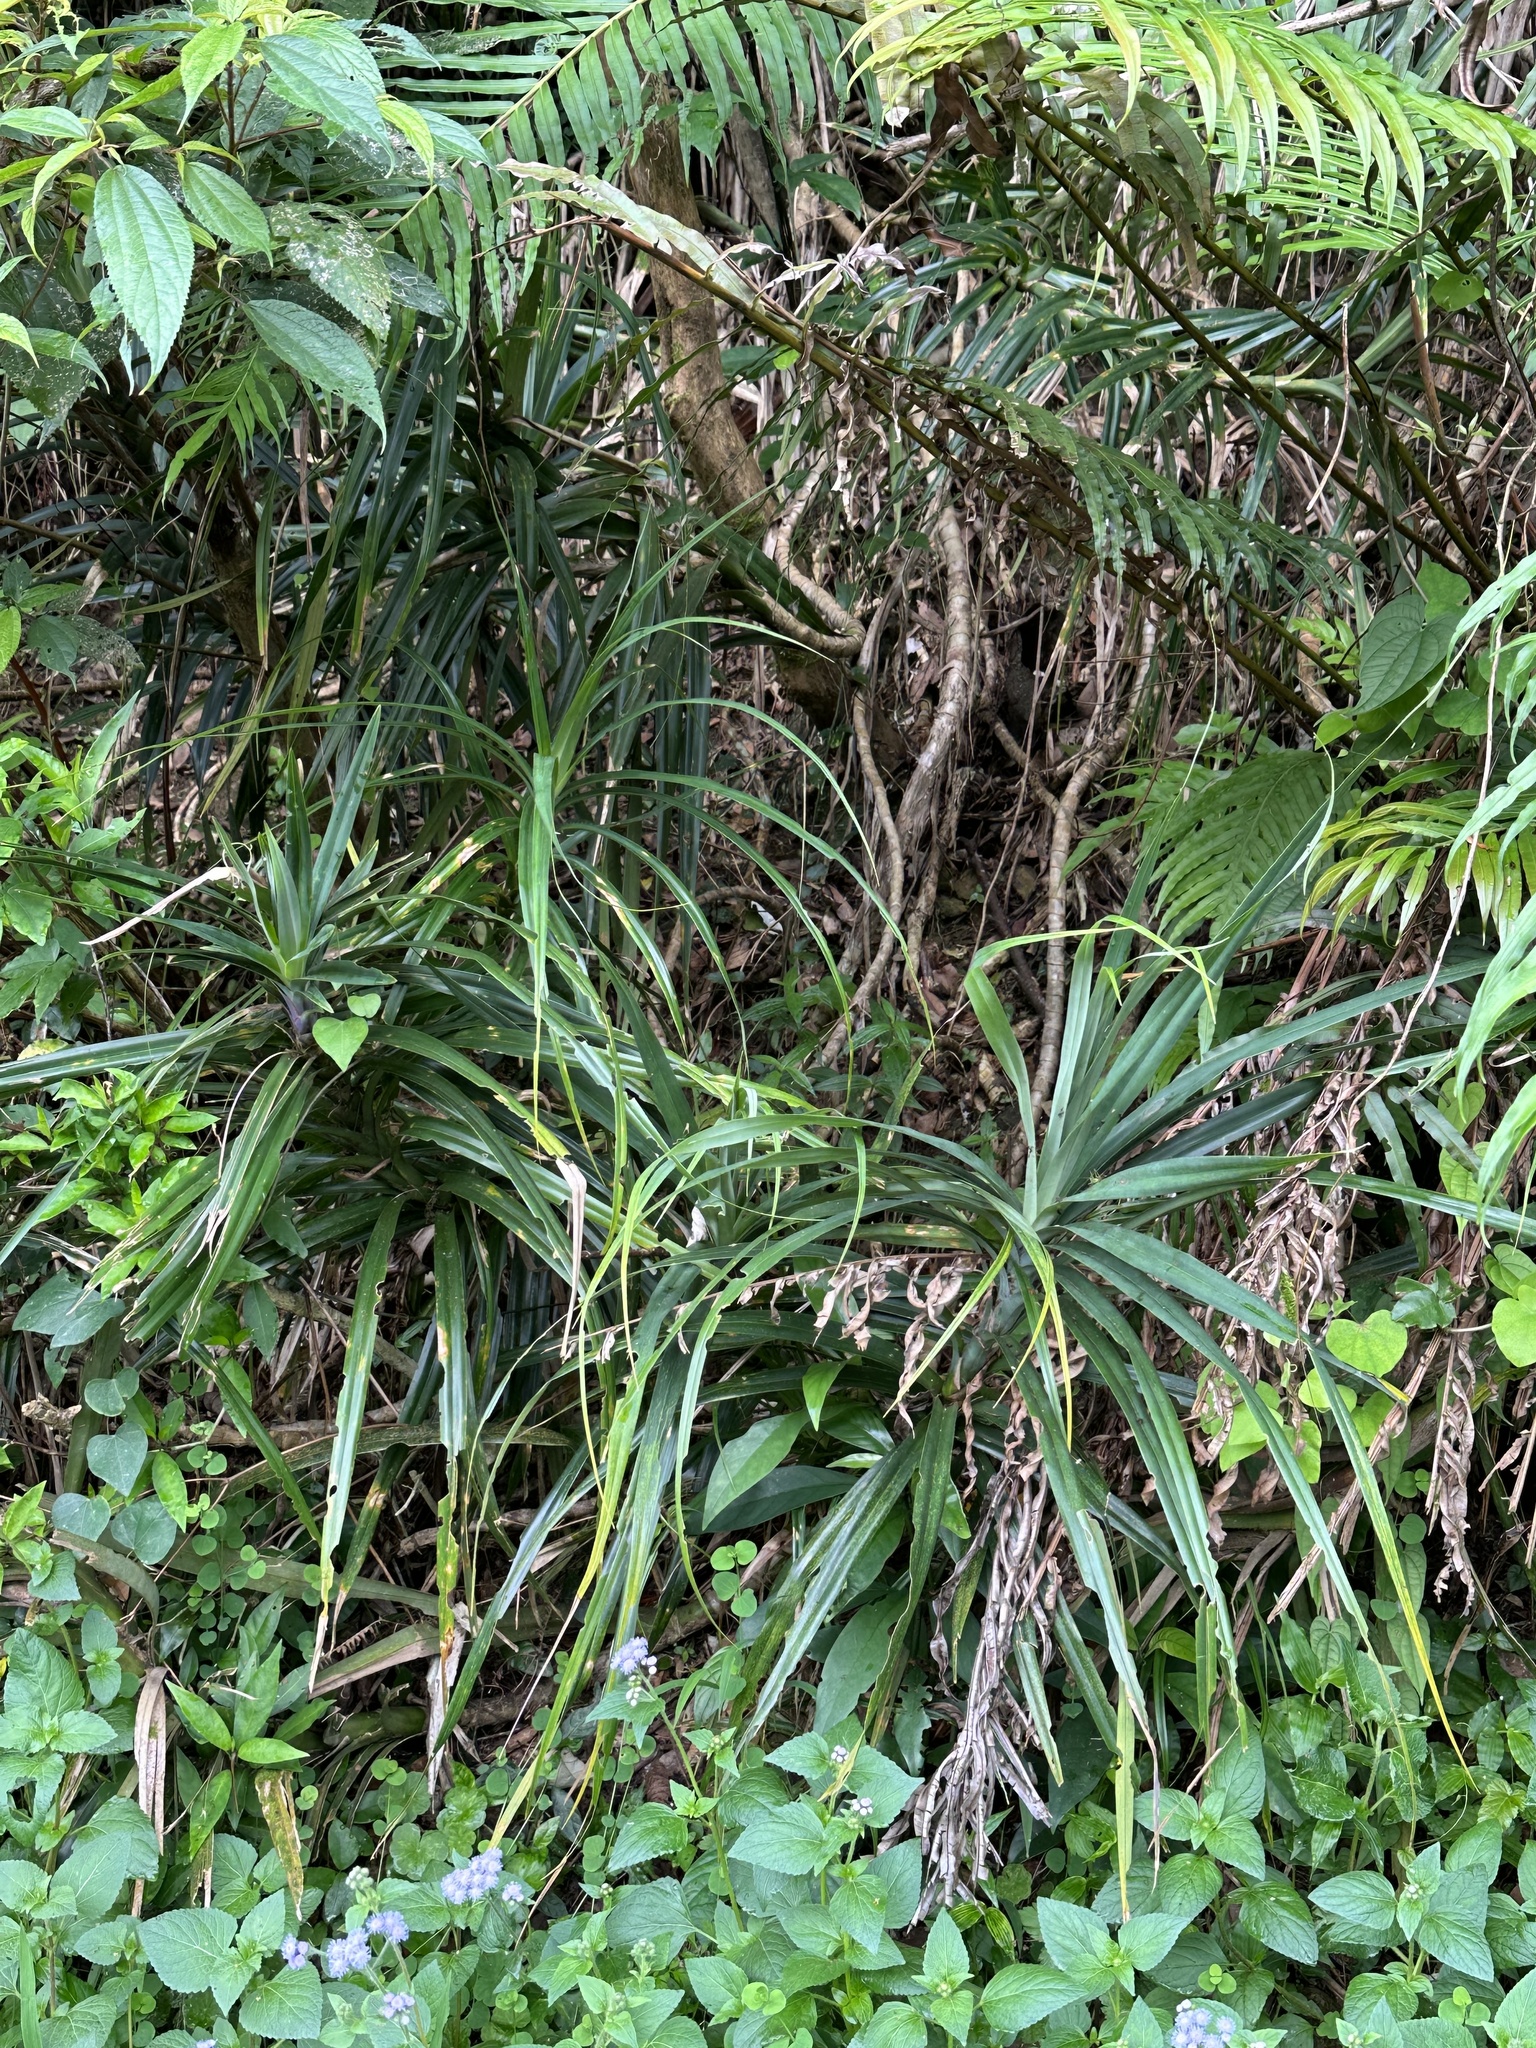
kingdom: Plantae
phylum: Tracheophyta
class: Liliopsida
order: Pandanales
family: Pandanaceae
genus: Freycinetia
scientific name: Freycinetia formosana
